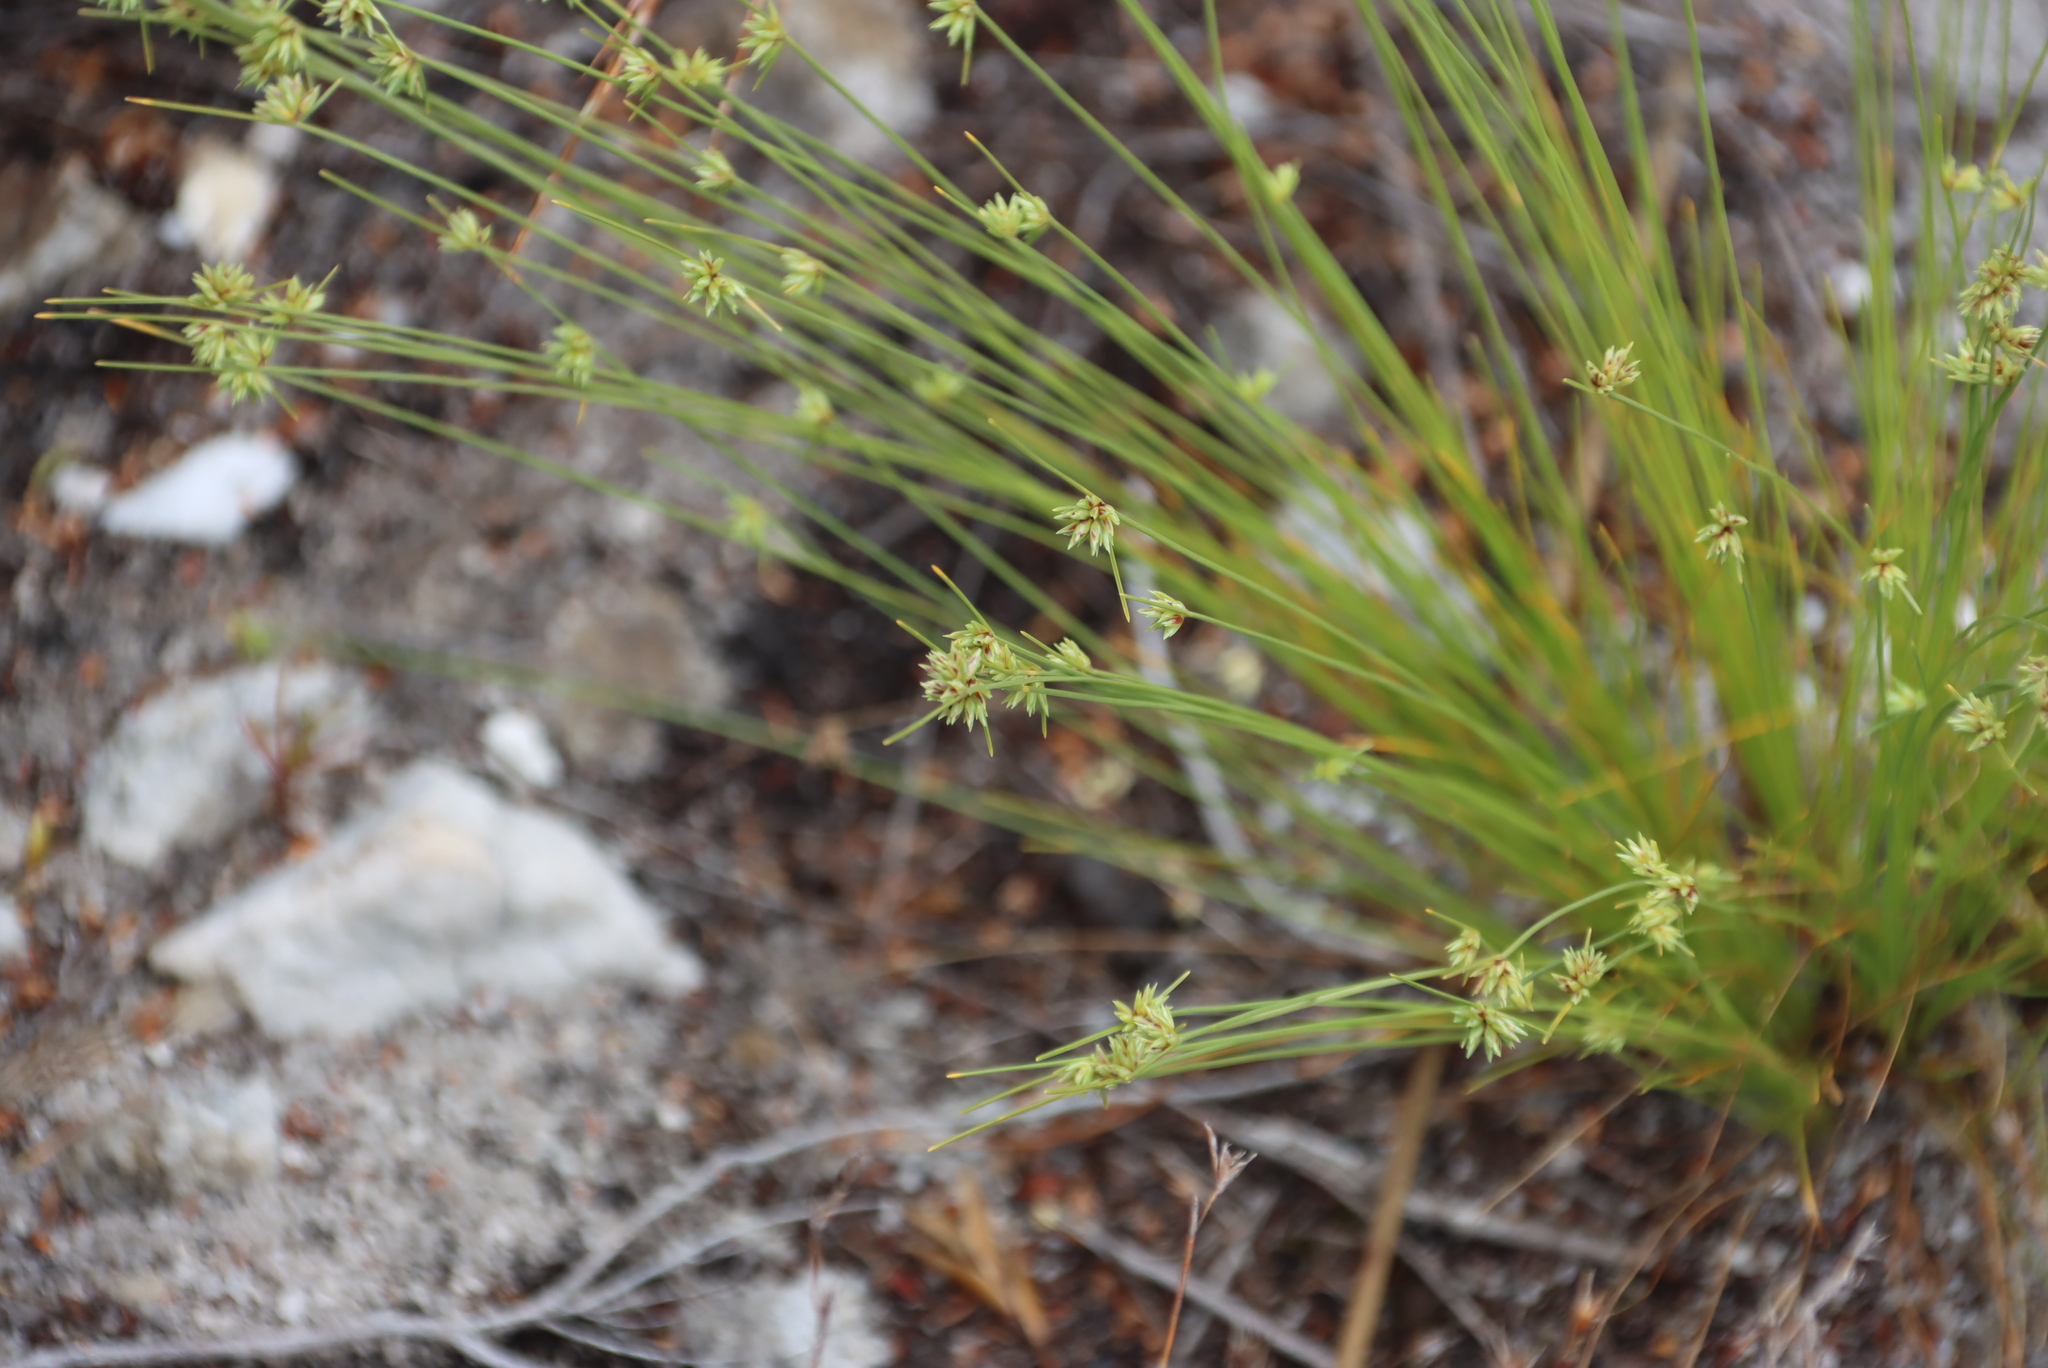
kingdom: Plantae
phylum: Tracheophyta
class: Liliopsida
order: Poales
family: Cyperaceae
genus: Ficinia
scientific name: Ficinia filiformis
